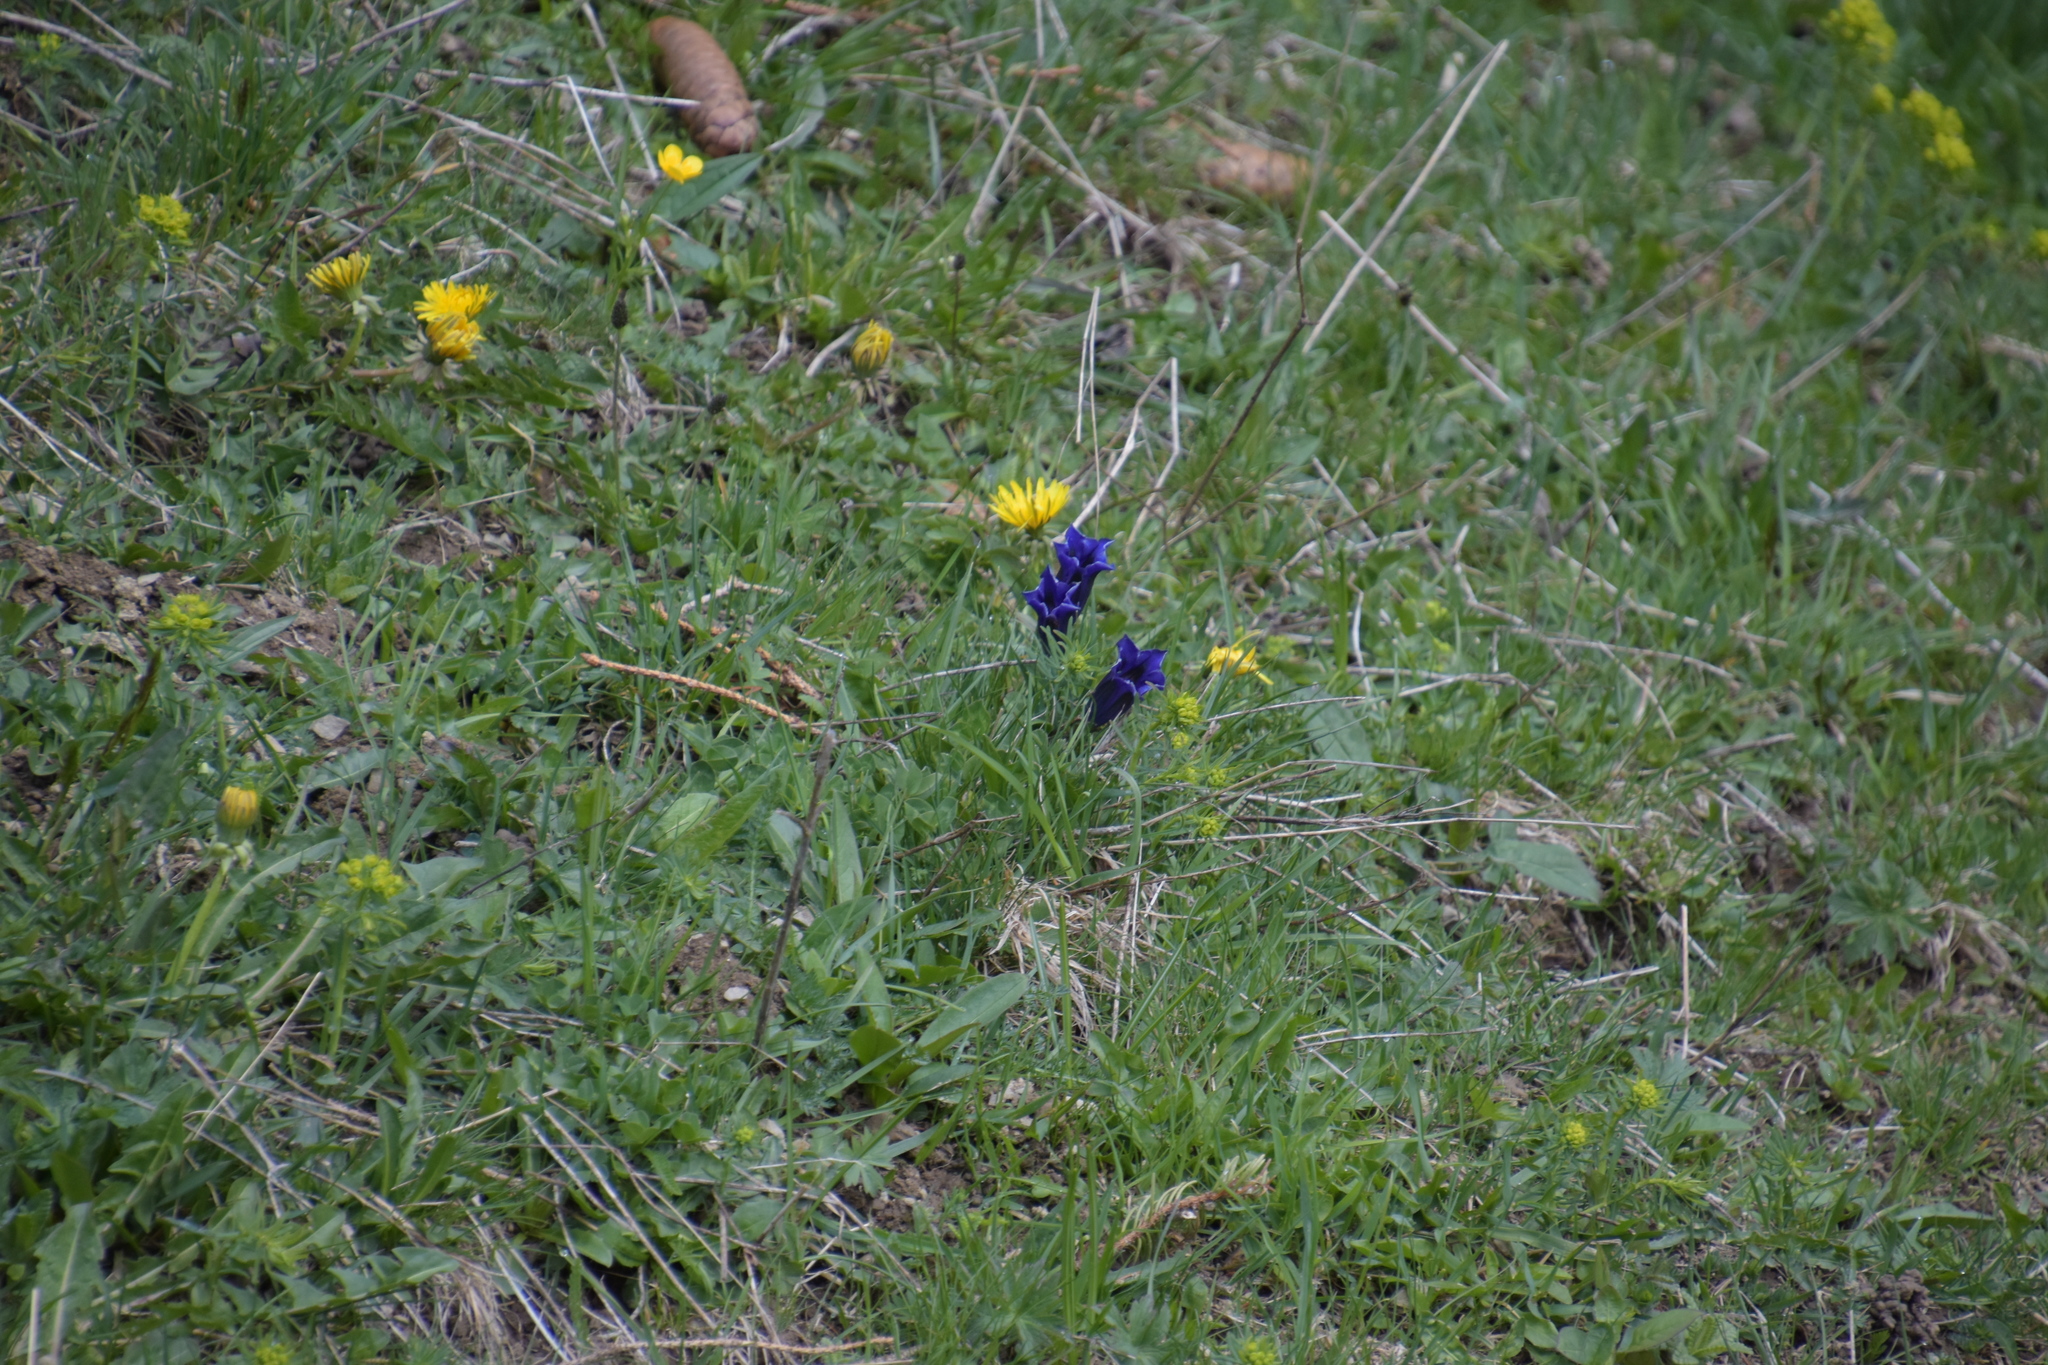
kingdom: Plantae
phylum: Tracheophyta
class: Magnoliopsida
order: Gentianales
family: Gentianaceae
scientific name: Gentianaceae
